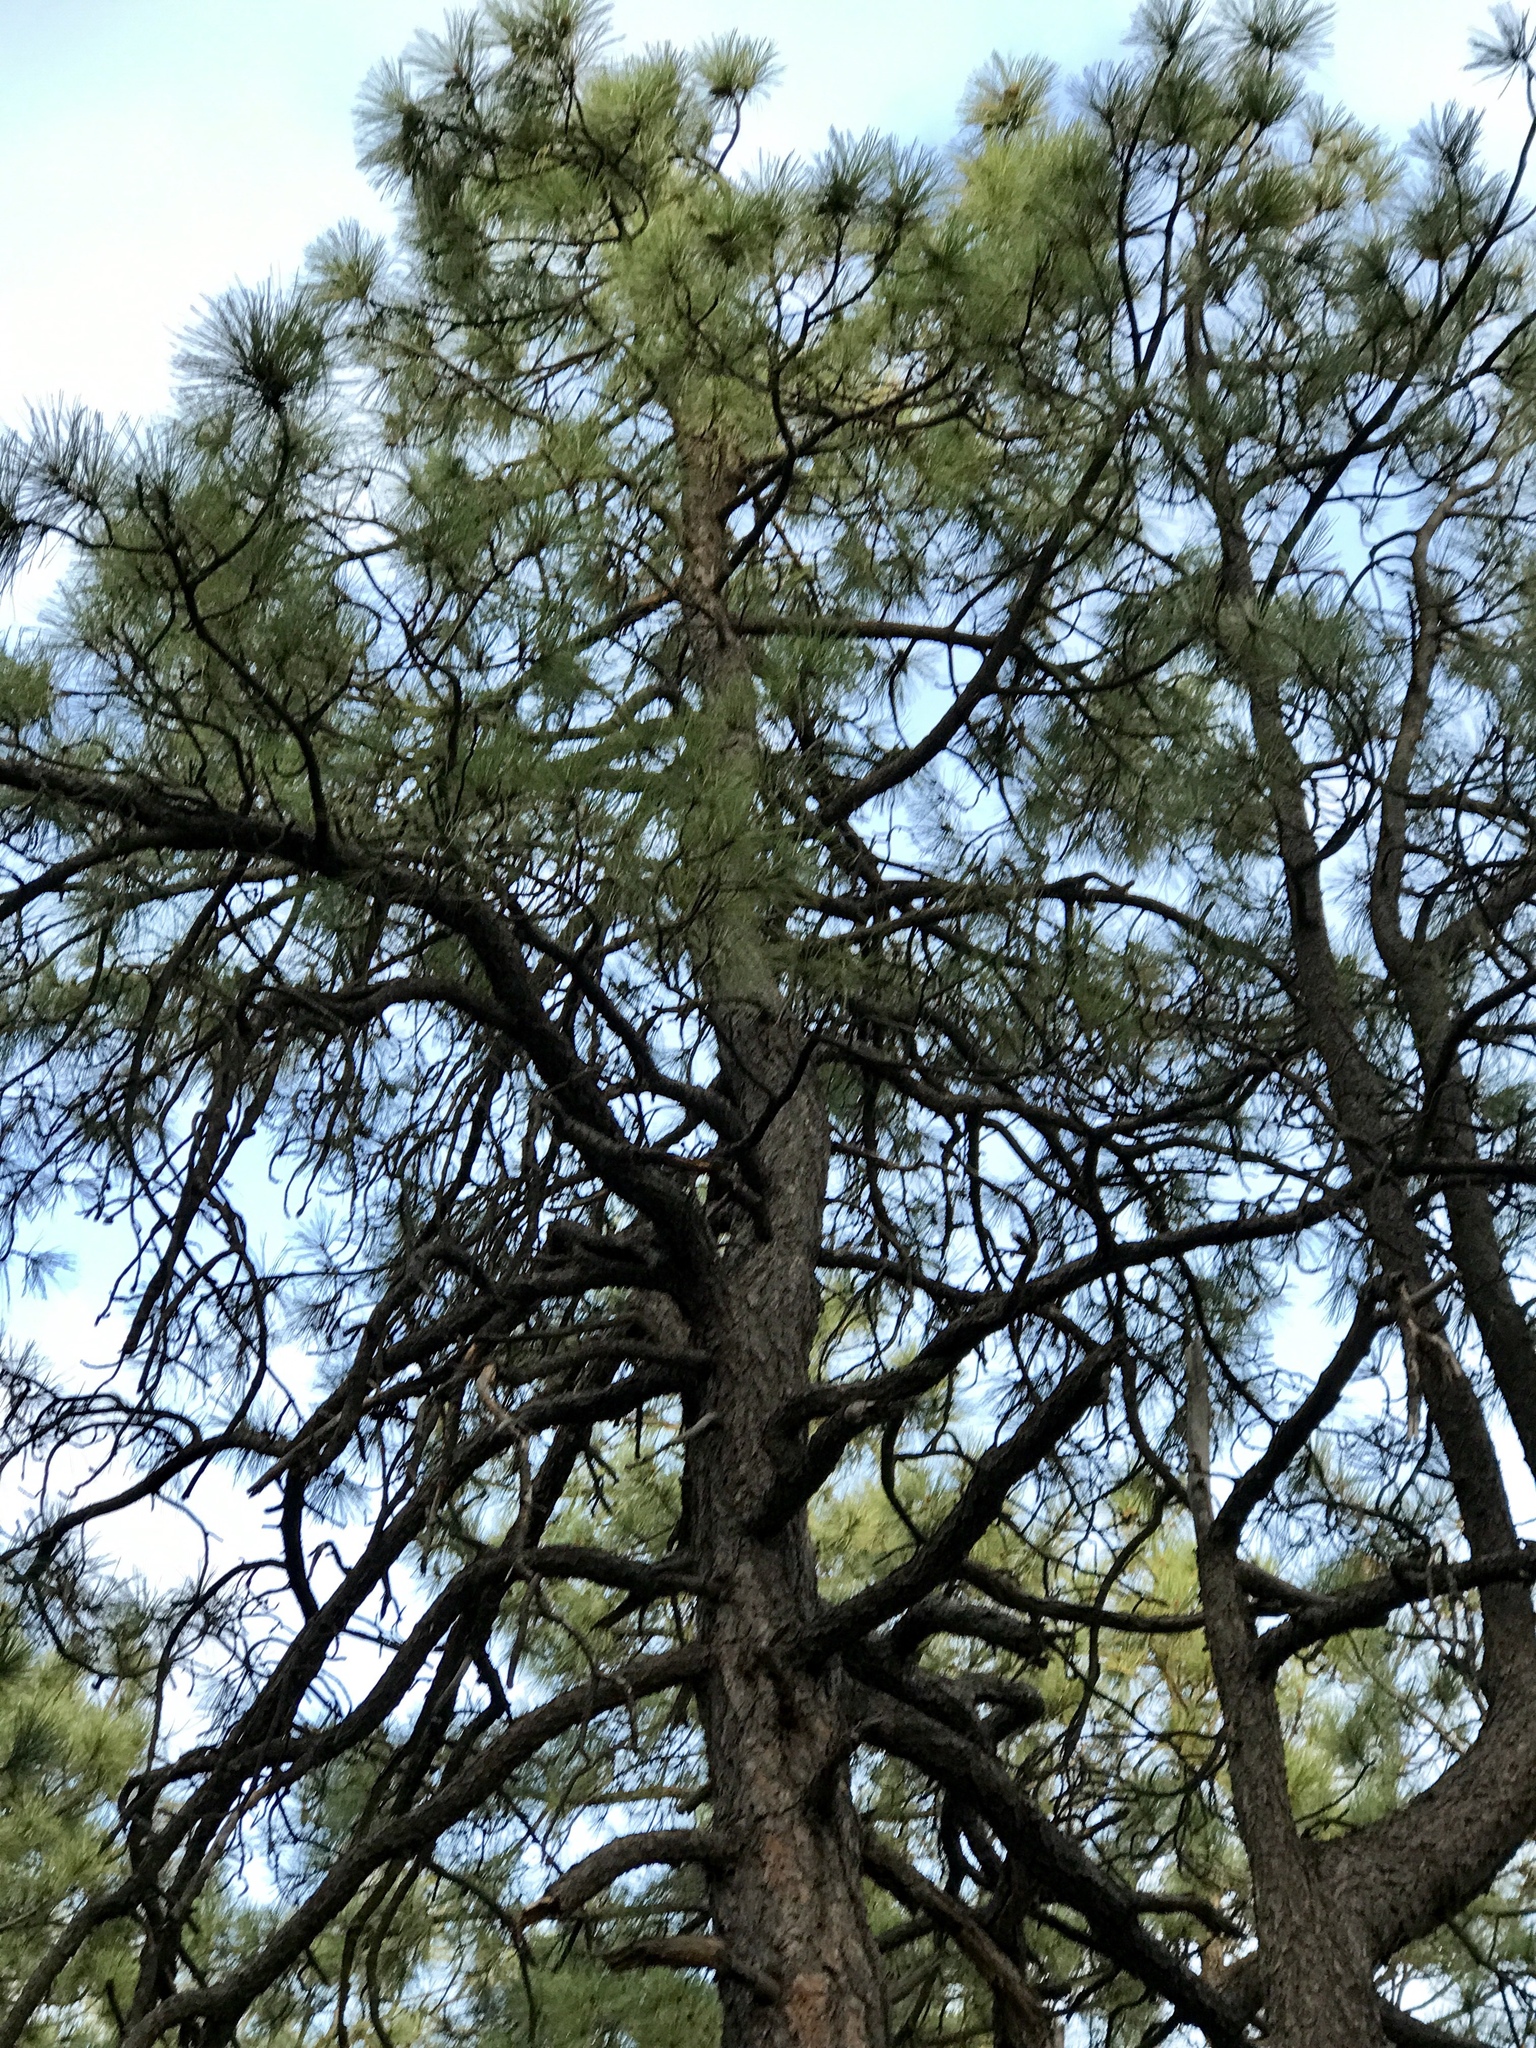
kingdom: Plantae
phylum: Tracheophyta
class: Pinopsida
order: Pinales
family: Pinaceae
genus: Pinus
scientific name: Pinus ponderosa
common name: Western yellow-pine
